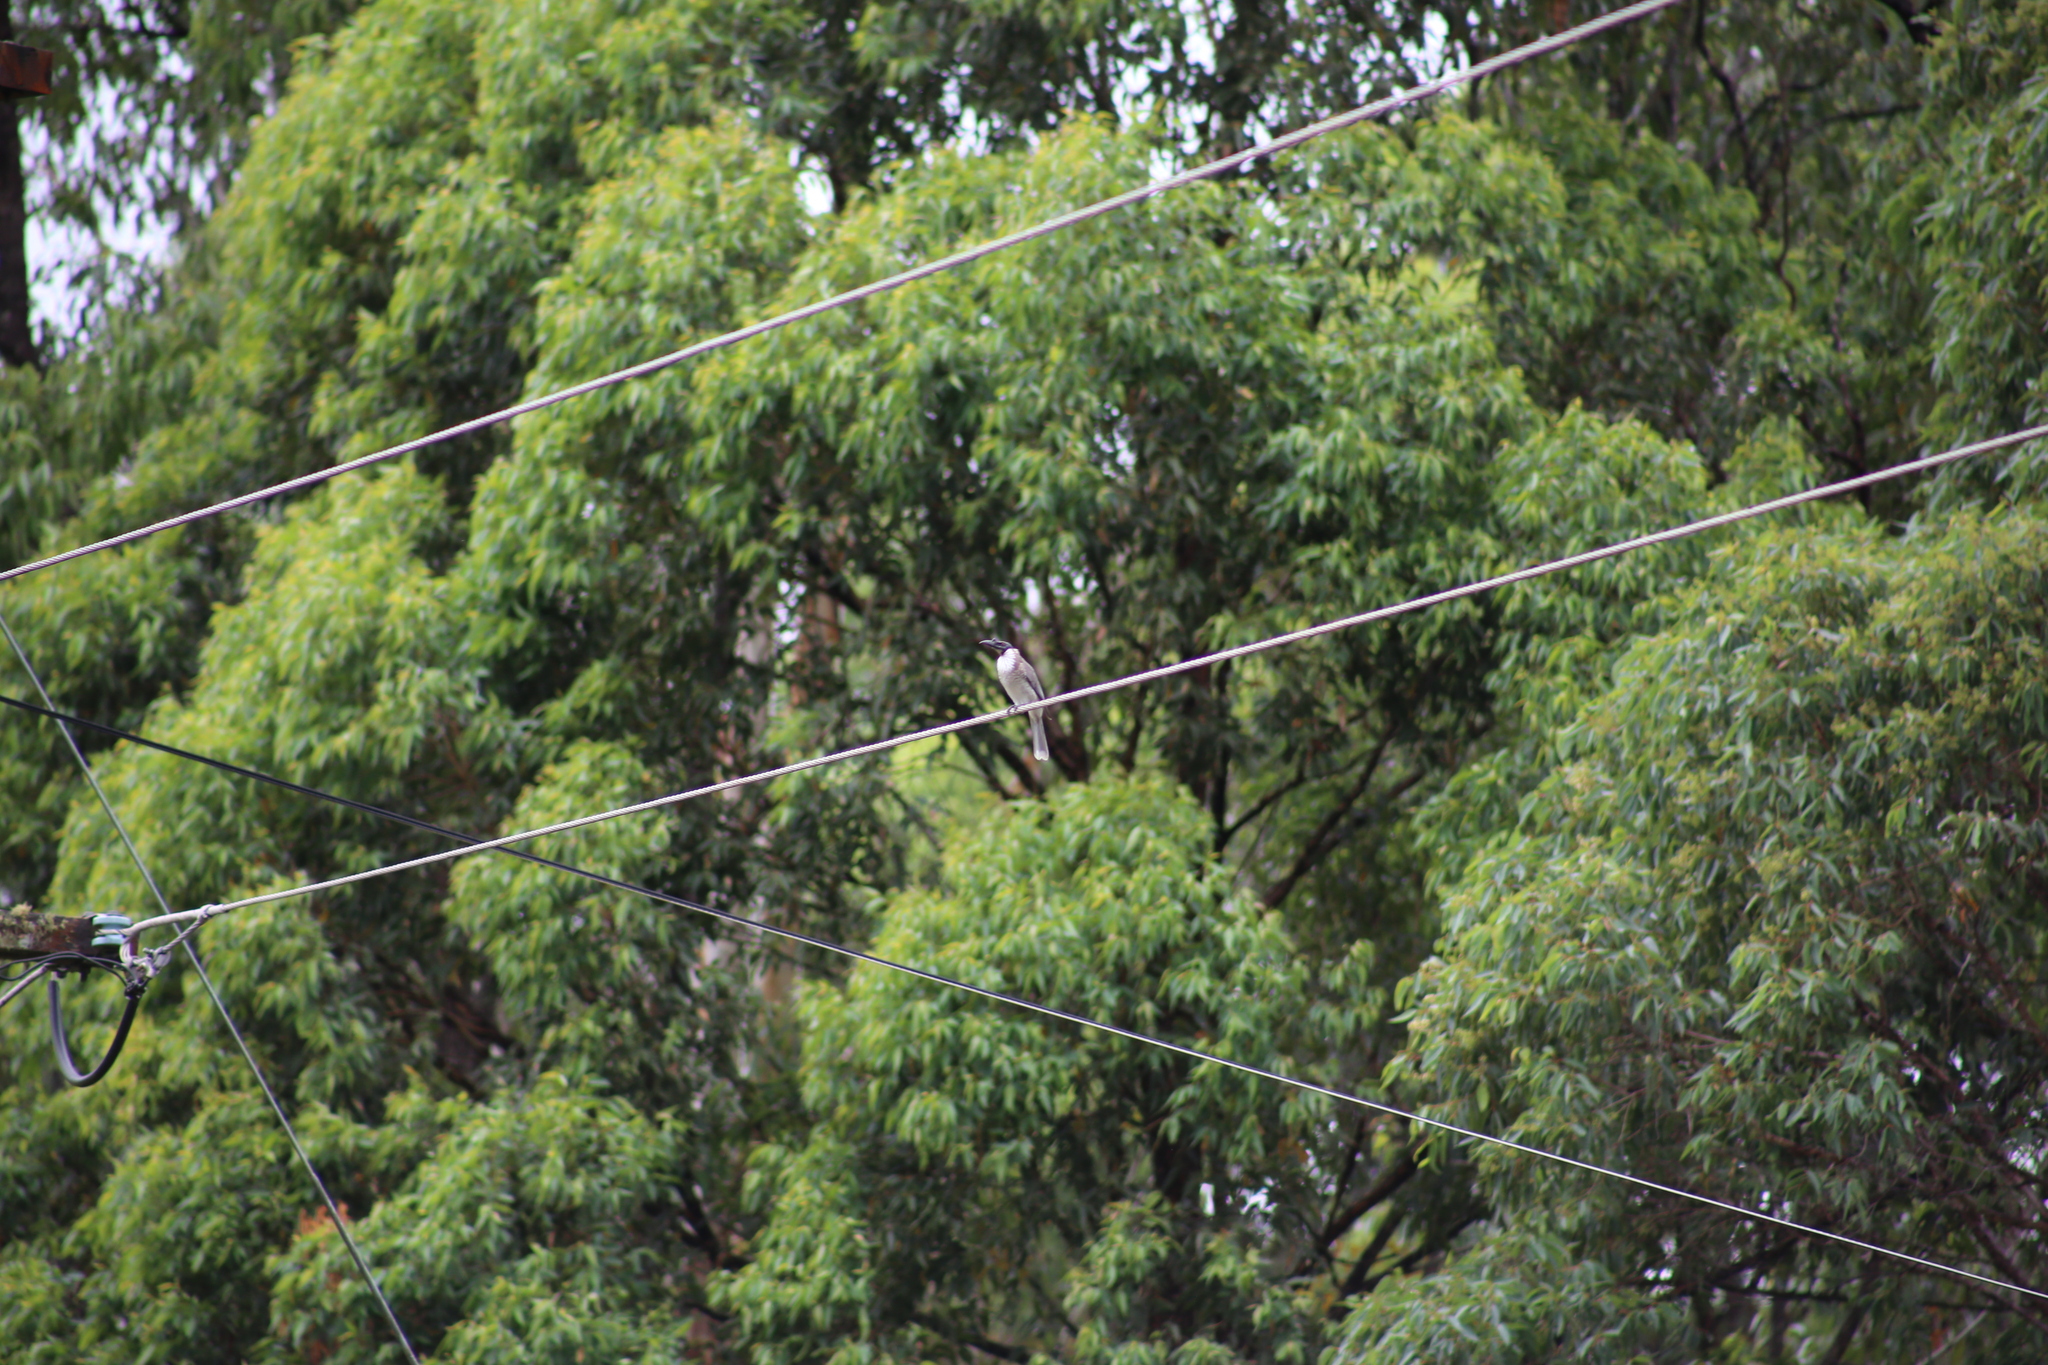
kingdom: Animalia
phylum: Chordata
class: Aves
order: Passeriformes
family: Meliphagidae
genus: Philemon
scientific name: Philemon corniculatus
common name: Noisy friarbird
